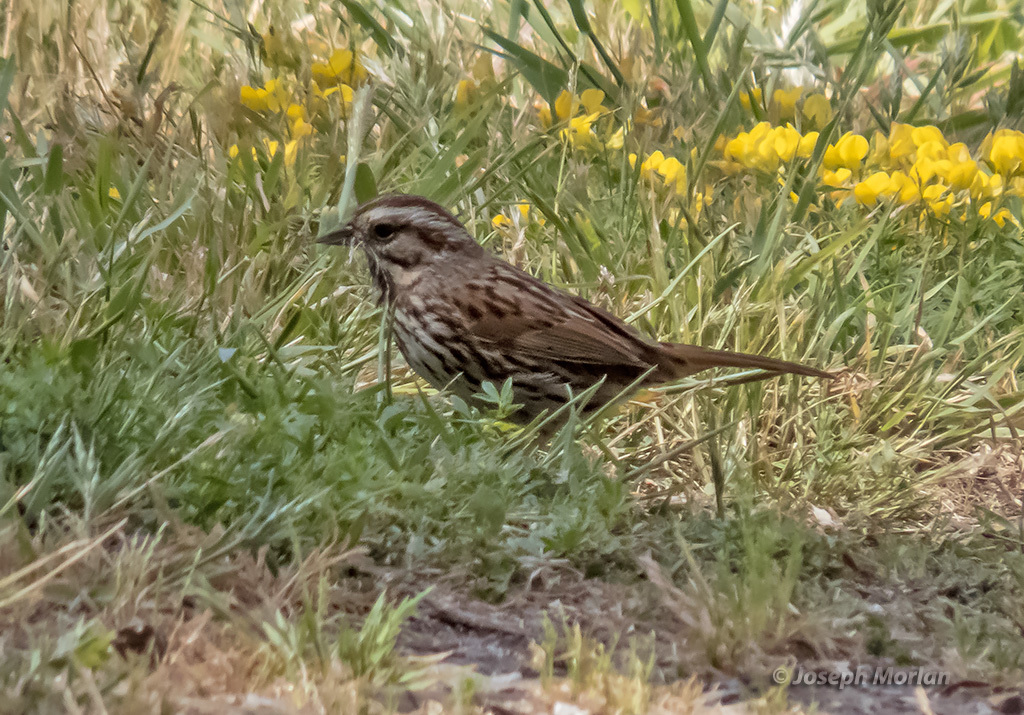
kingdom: Animalia
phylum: Chordata
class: Aves
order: Passeriformes
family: Passerellidae
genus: Melospiza
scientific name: Melospiza melodia
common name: Song sparrow
